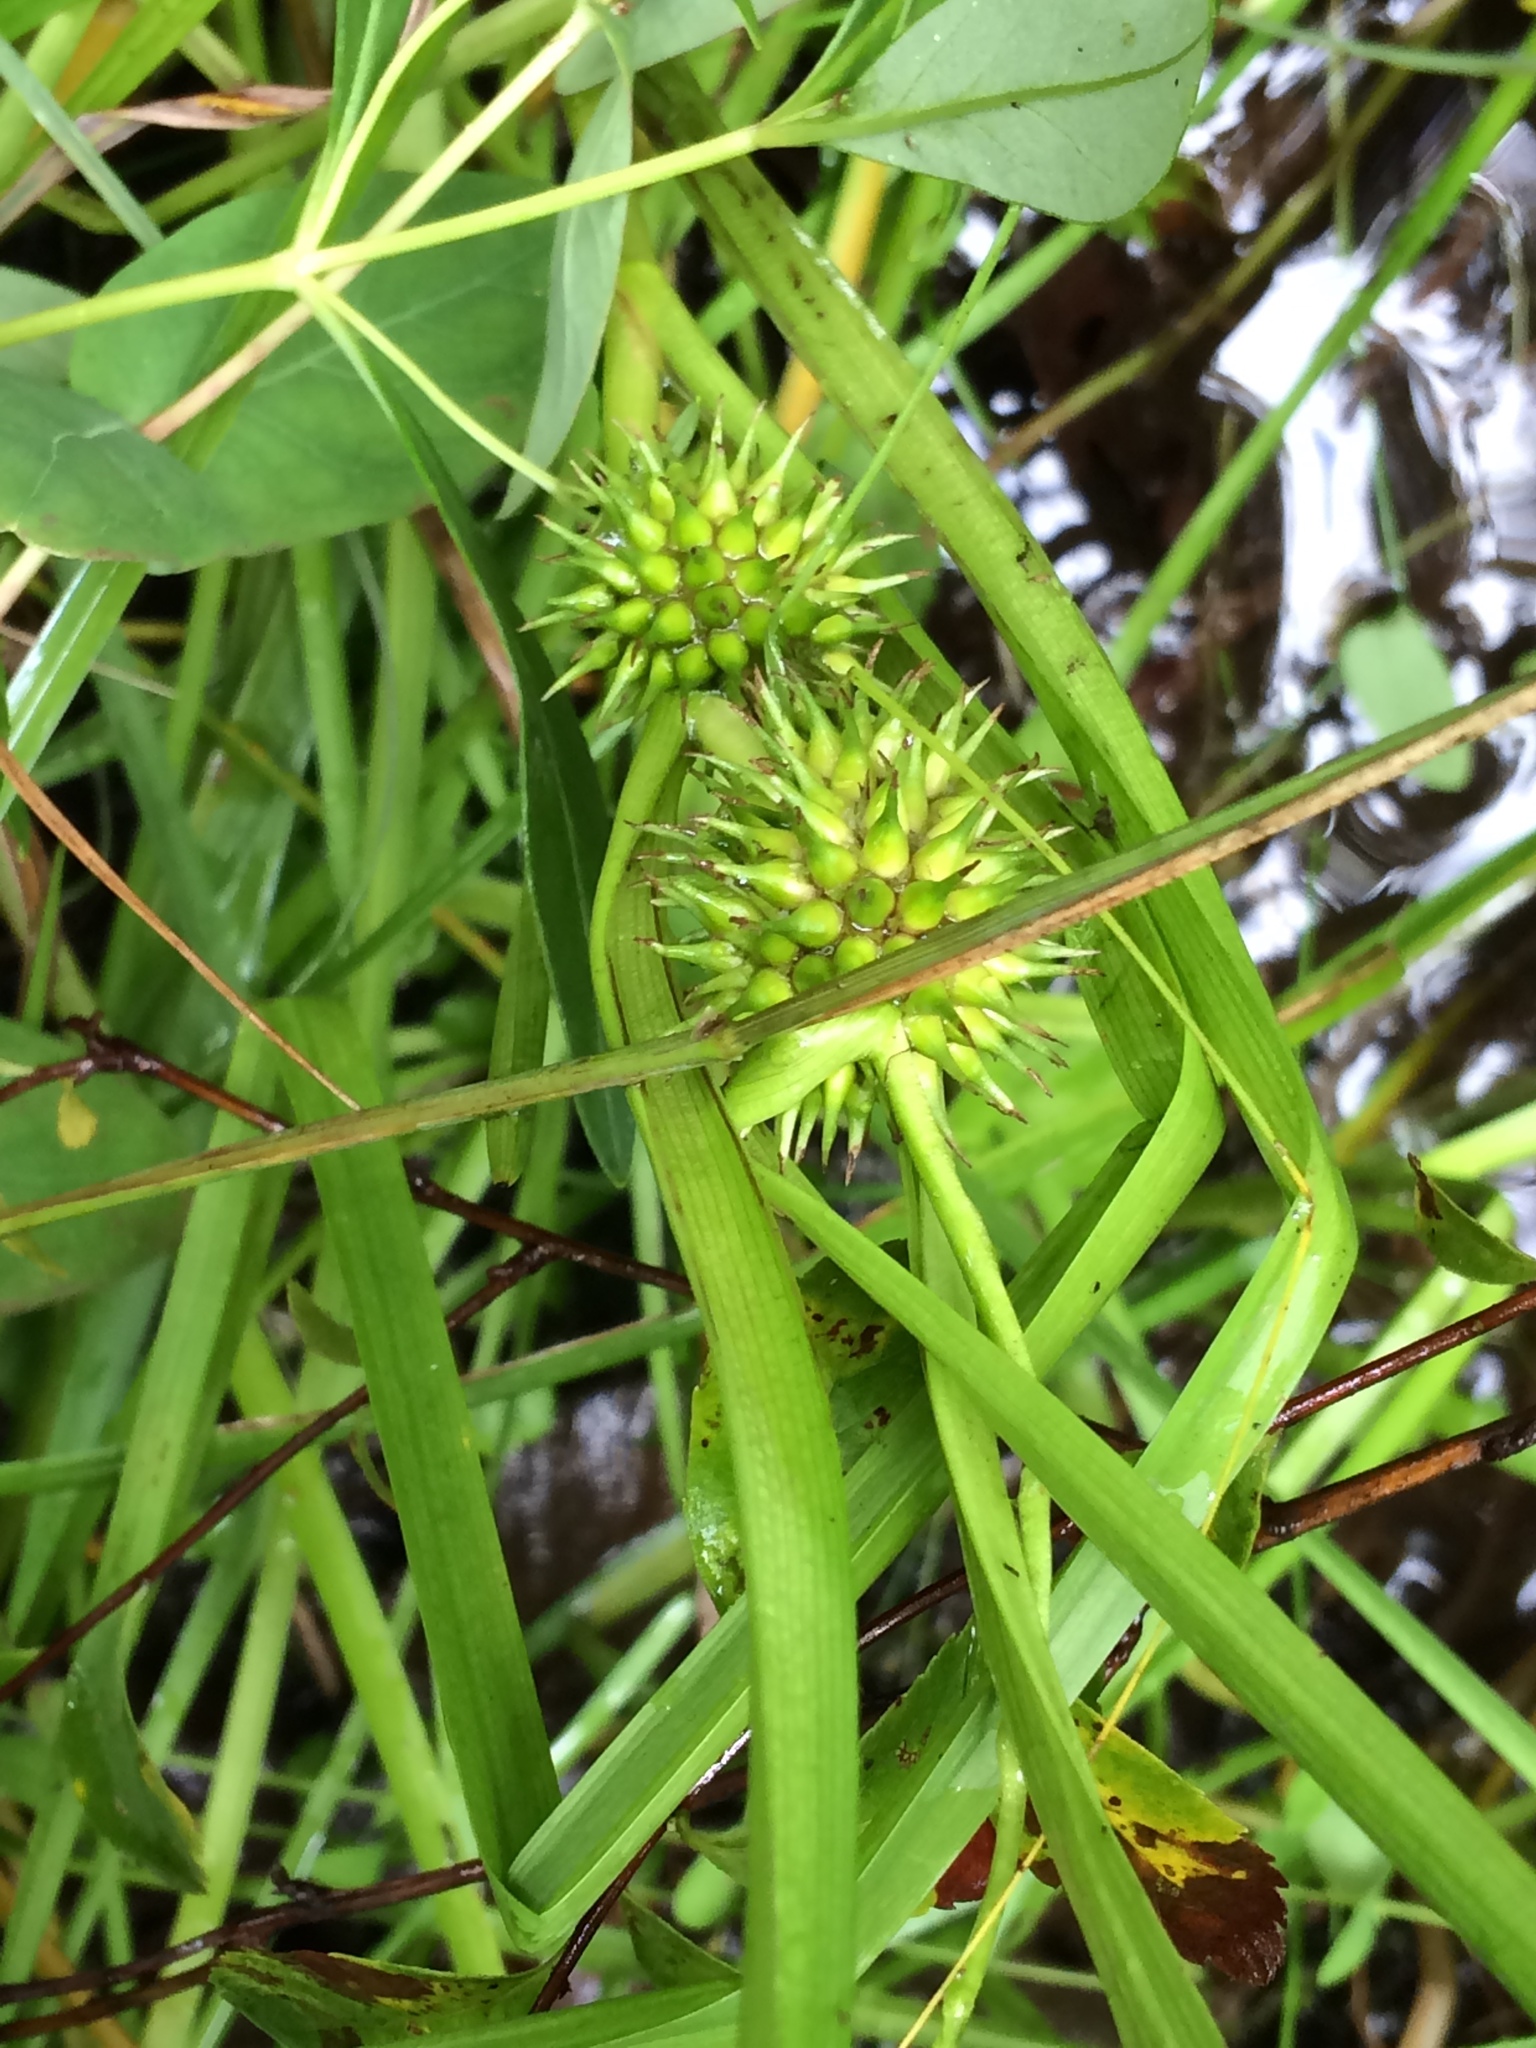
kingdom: Plantae
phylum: Tracheophyta
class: Liliopsida
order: Poales
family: Typhaceae
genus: Sparganium
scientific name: Sparganium emersum
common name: Unbranched bur-reed
